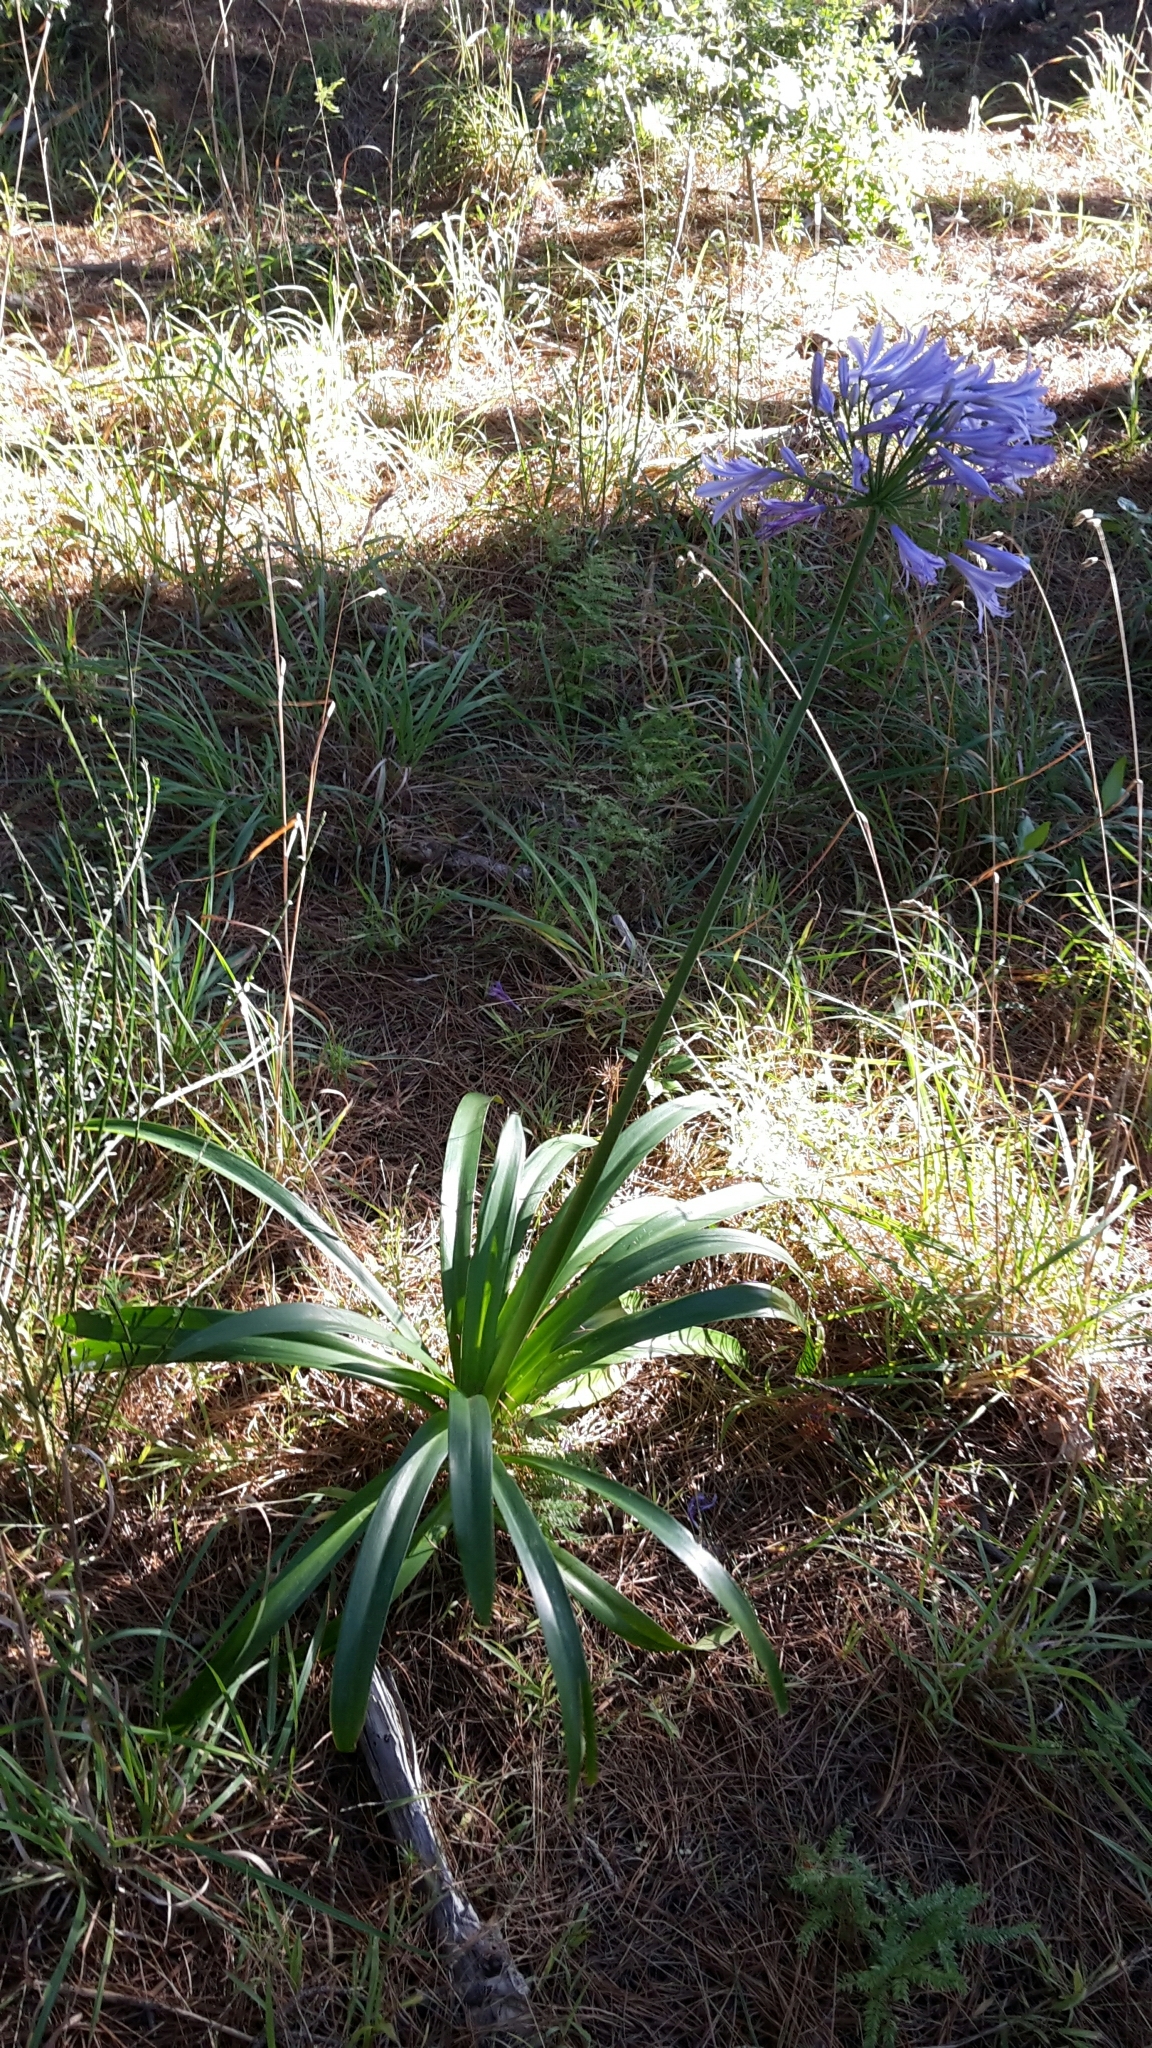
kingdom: Plantae
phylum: Tracheophyta
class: Liliopsida
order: Asparagales
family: Amaryllidaceae
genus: Agapanthus
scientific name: Agapanthus praecox
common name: African-lily
